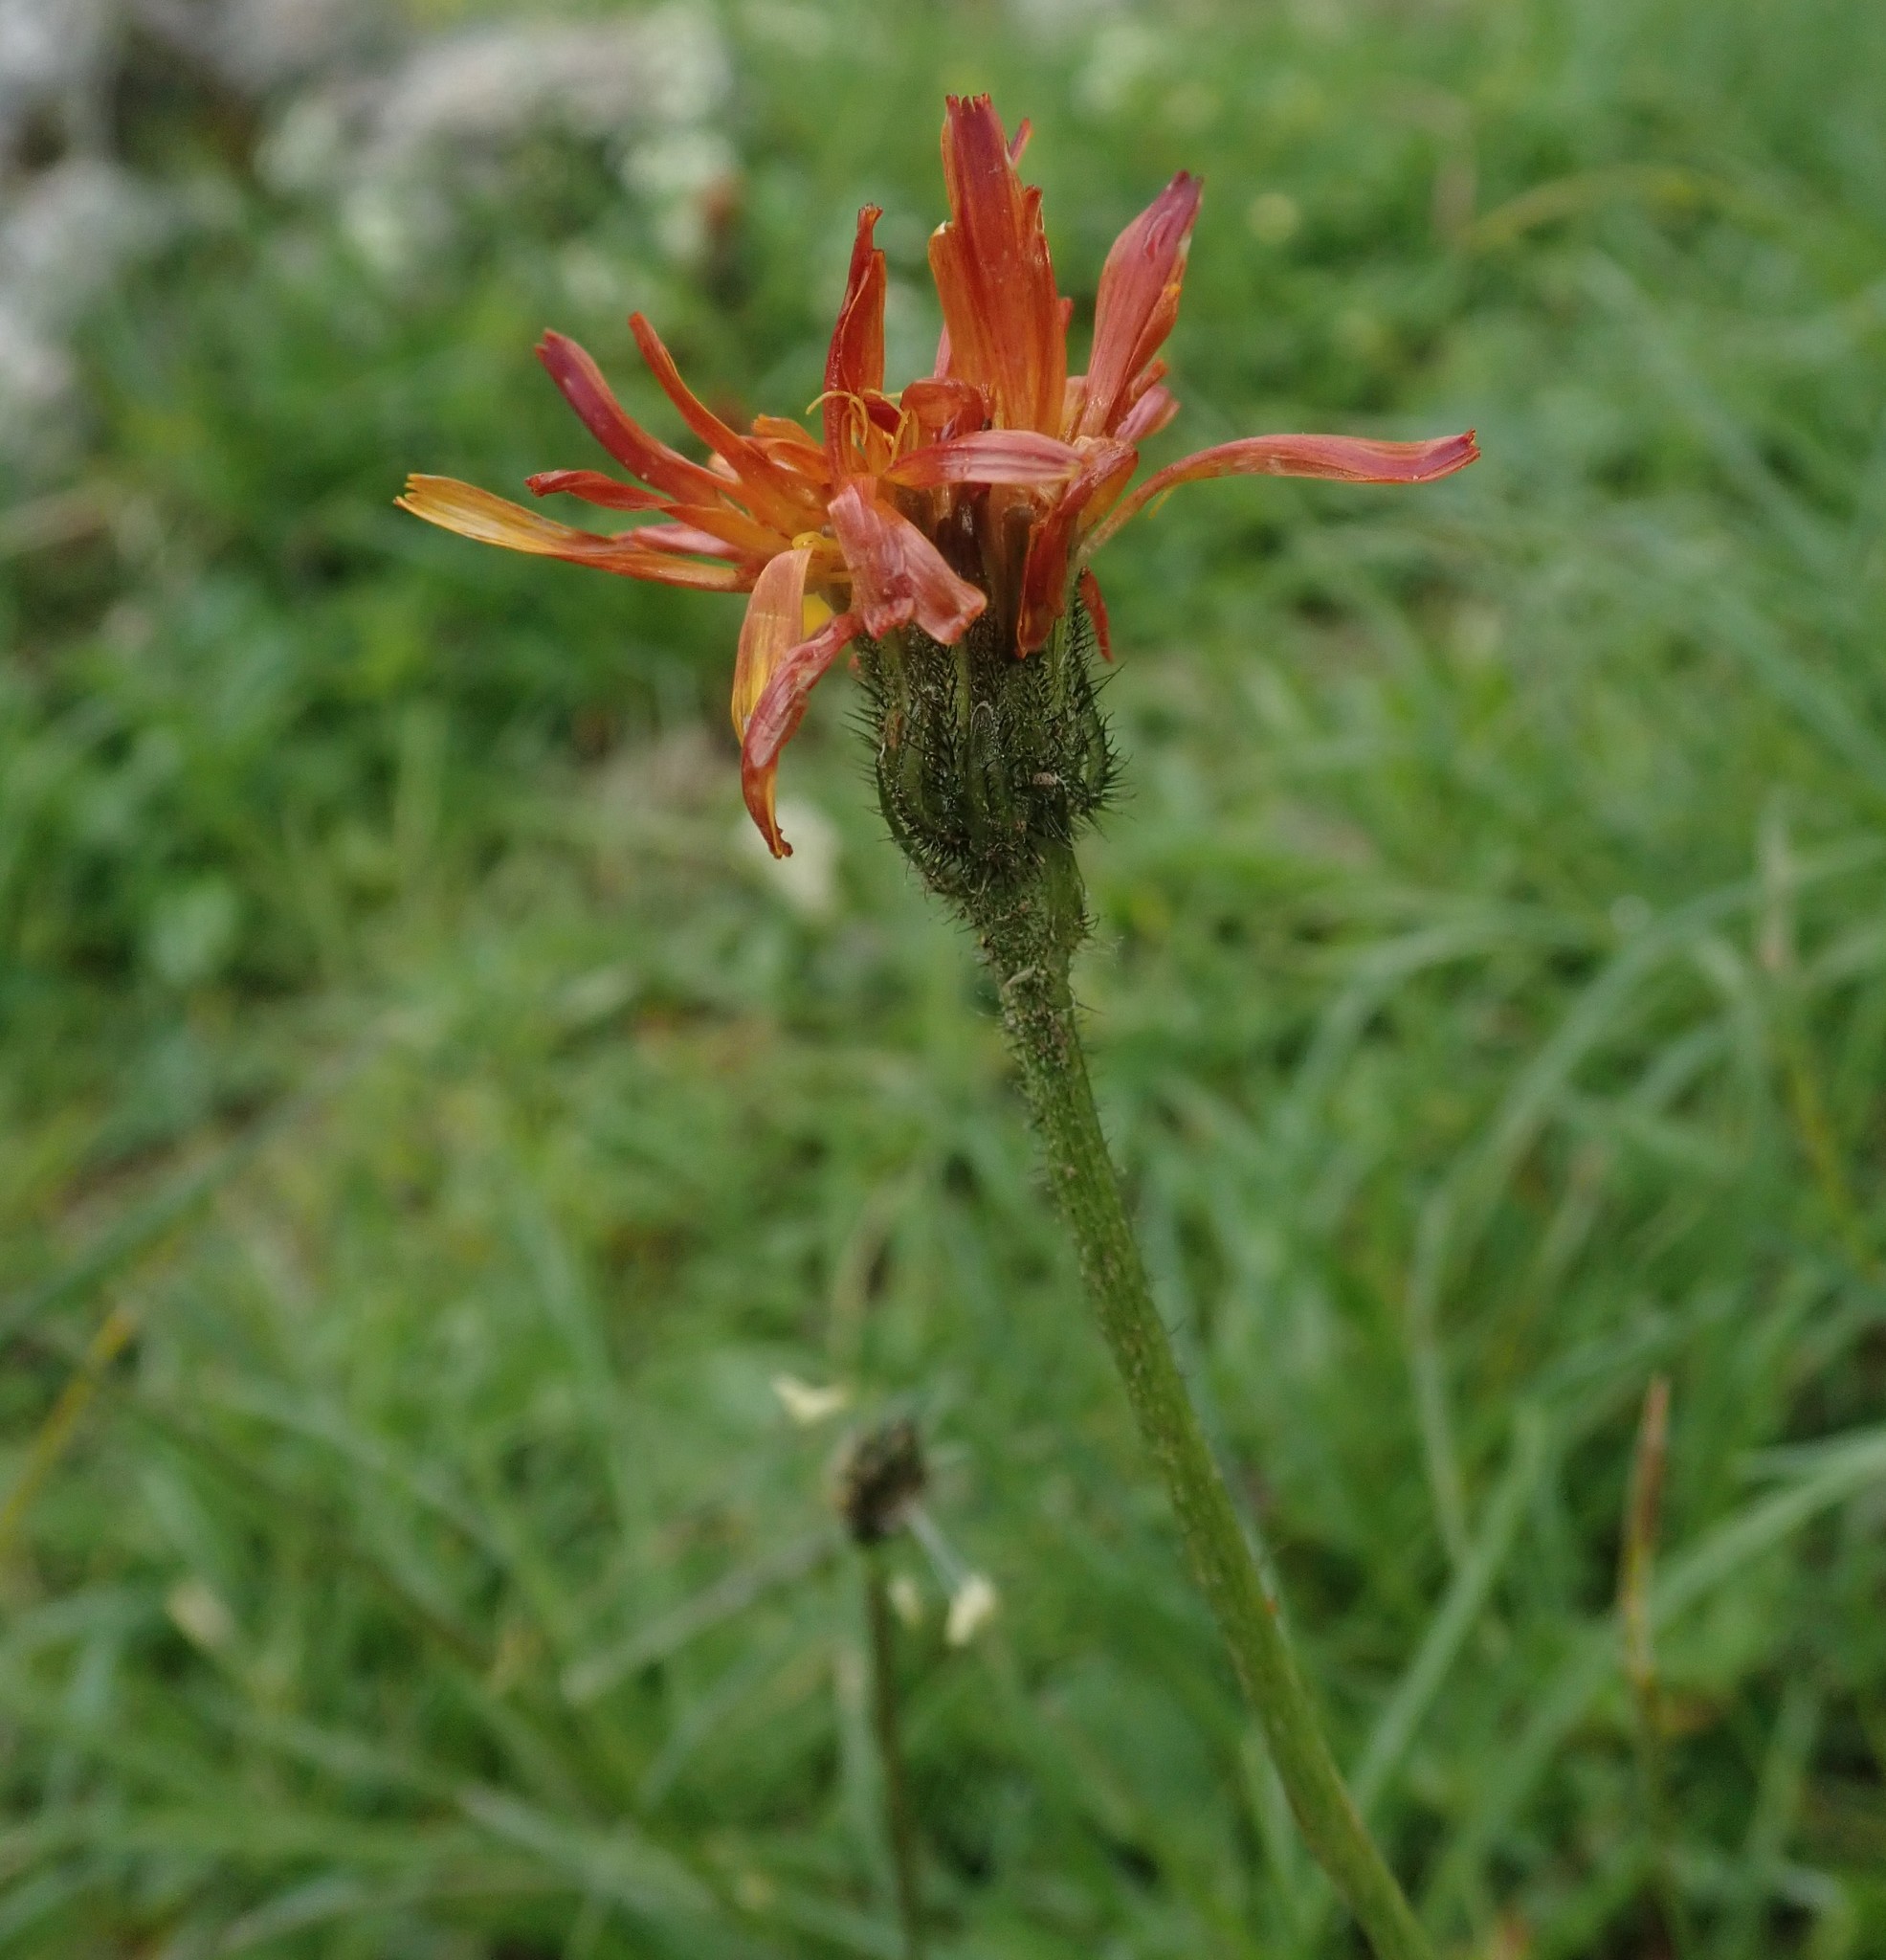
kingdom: Plantae
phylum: Tracheophyta
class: Magnoliopsida
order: Asterales
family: Asteraceae
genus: Crepis
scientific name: Crepis aurea
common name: Golden hawk's-beard
